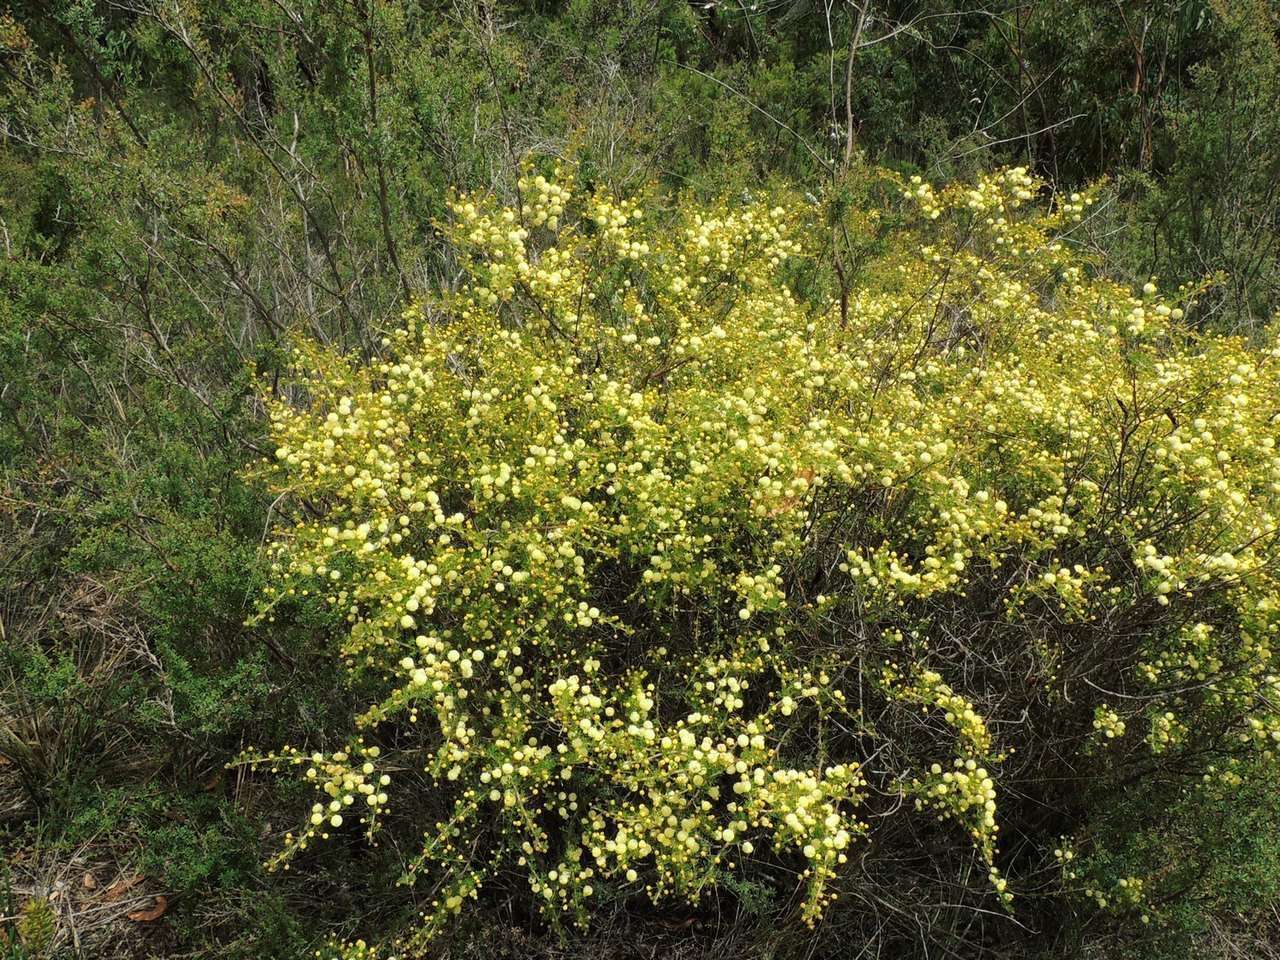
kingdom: Plantae
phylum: Tracheophyta
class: Magnoliopsida
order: Fabales
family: Fabaceae
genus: Acacia
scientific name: Acacia mitchellii
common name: Mitchell's wattle
